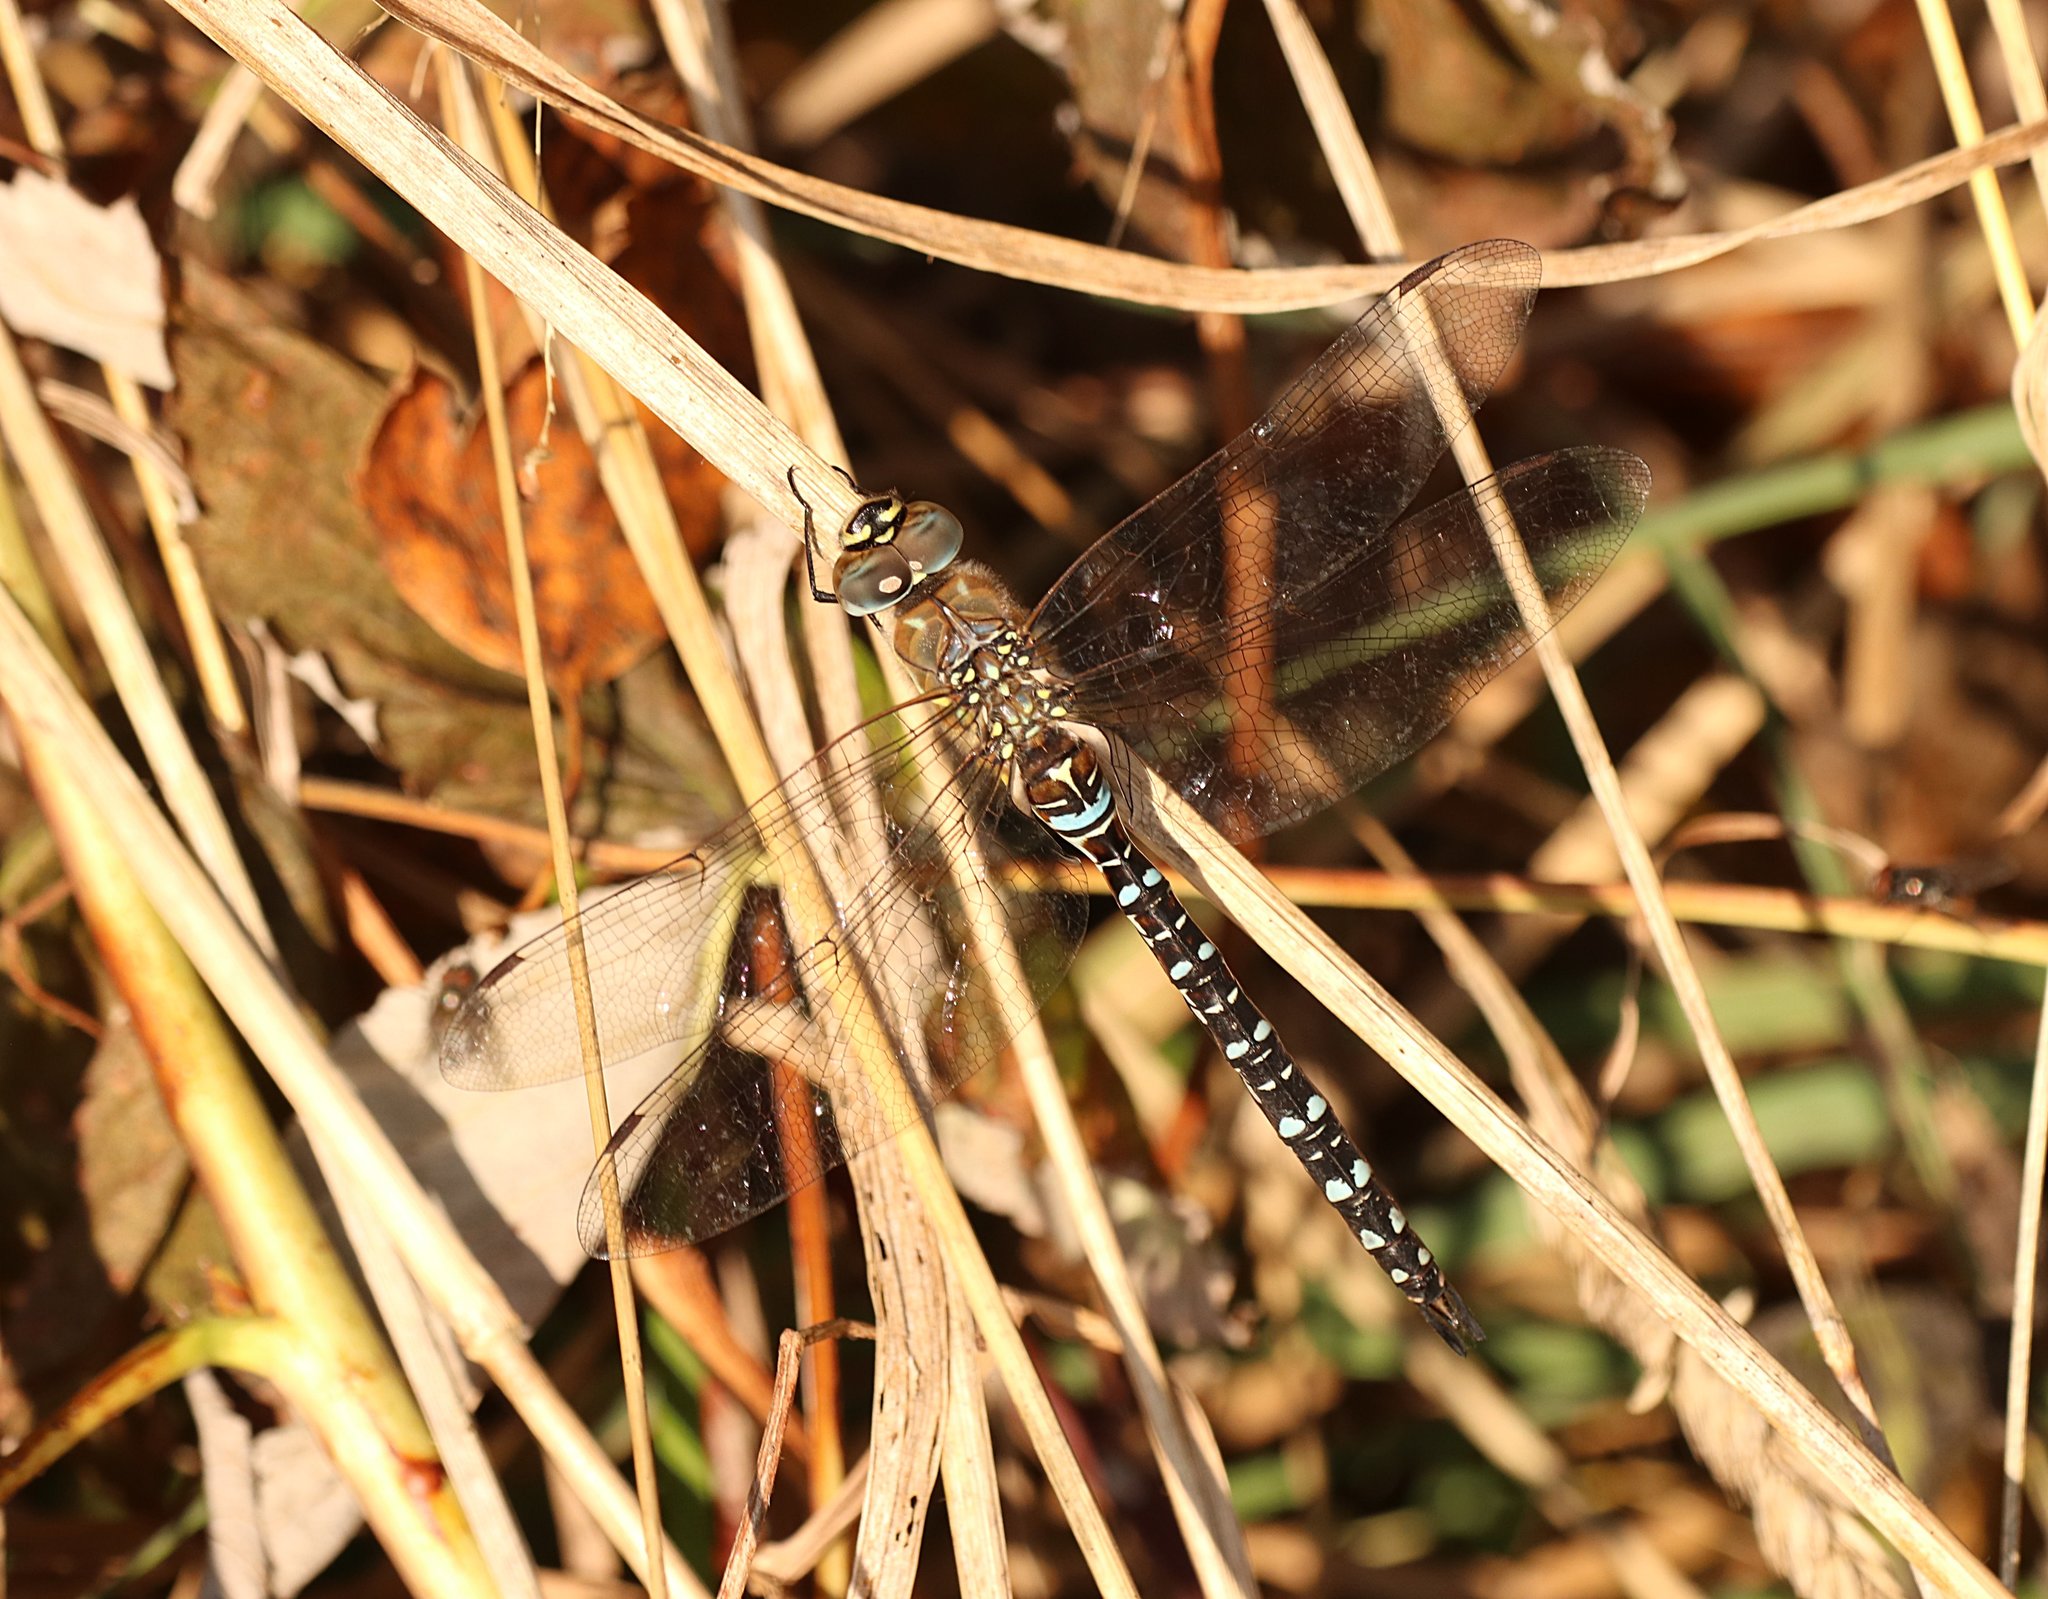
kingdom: Animalia
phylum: Arthropoda
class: Insecta
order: Odonata
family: Aeshnidae
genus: Aeshna
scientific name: Aeshna mixta
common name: Migrant hawker
